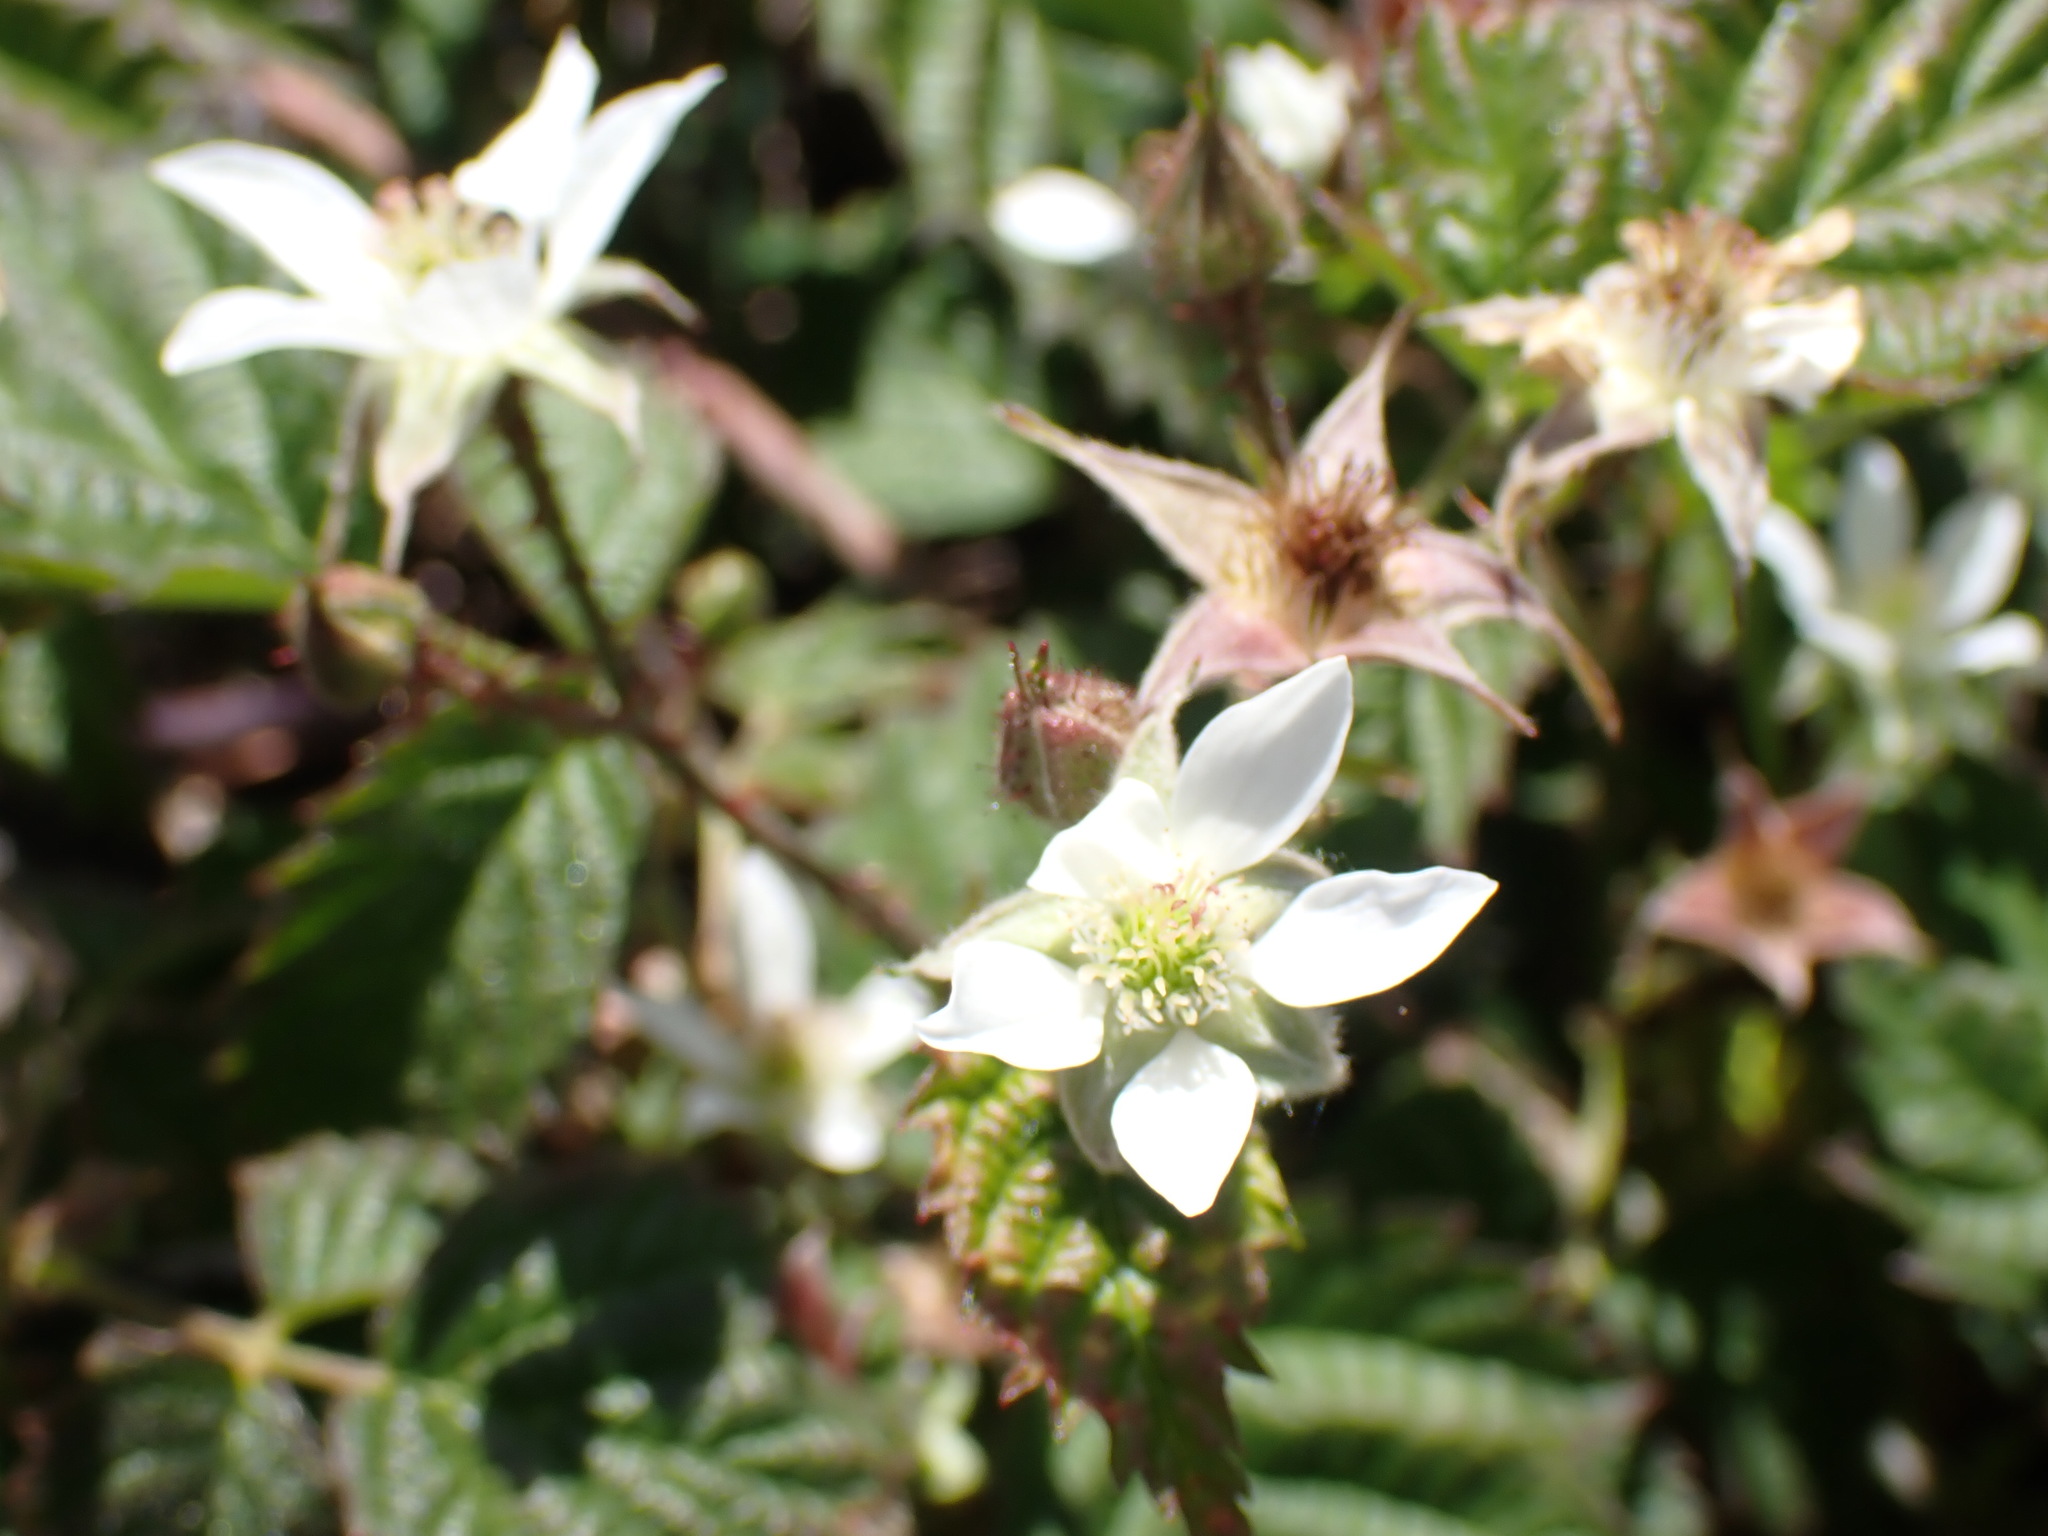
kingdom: Plantae
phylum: Tracheophyta
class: Magnoliopsida
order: Rosales
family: Rosaceae
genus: Rubus
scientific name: Rubus ursinus
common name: Pacific blackberry
